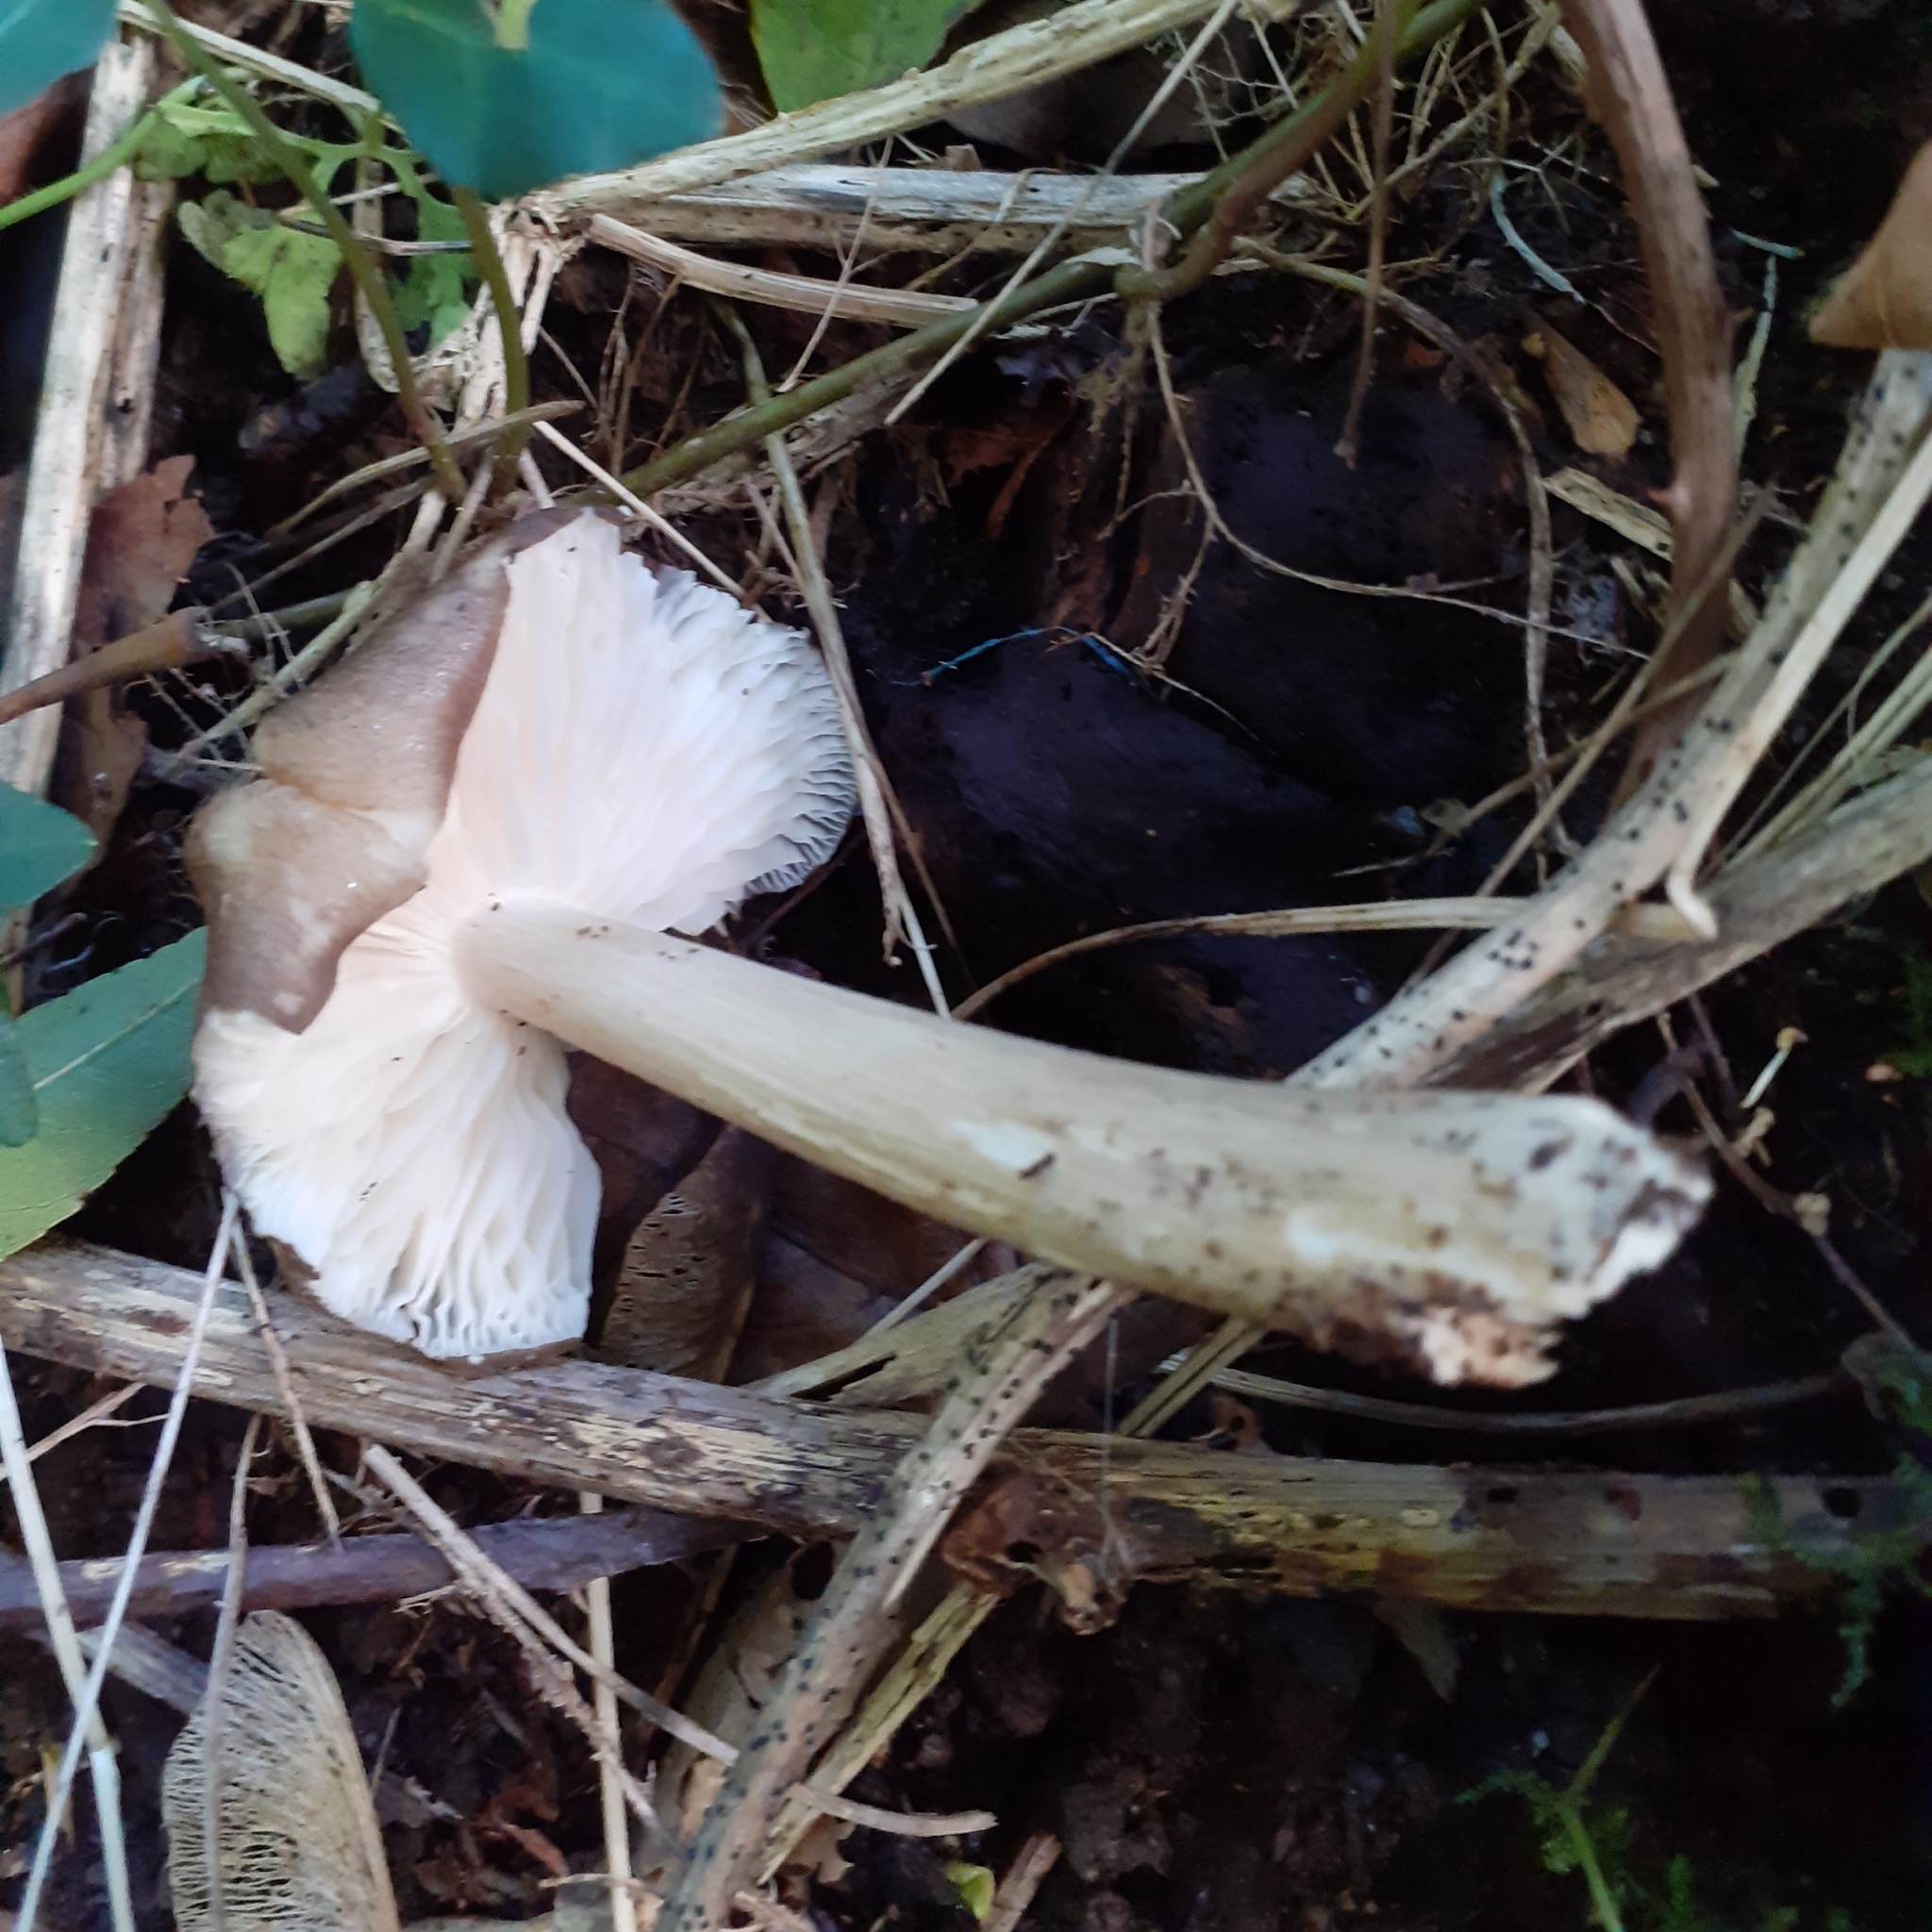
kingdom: Fungi
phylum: Basidiomycota
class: Agaricomycetes
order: Agaricales
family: Tricholomataceae
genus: Megacollybia
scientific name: Megacollybia platyphylla
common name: Whitelaced shank
